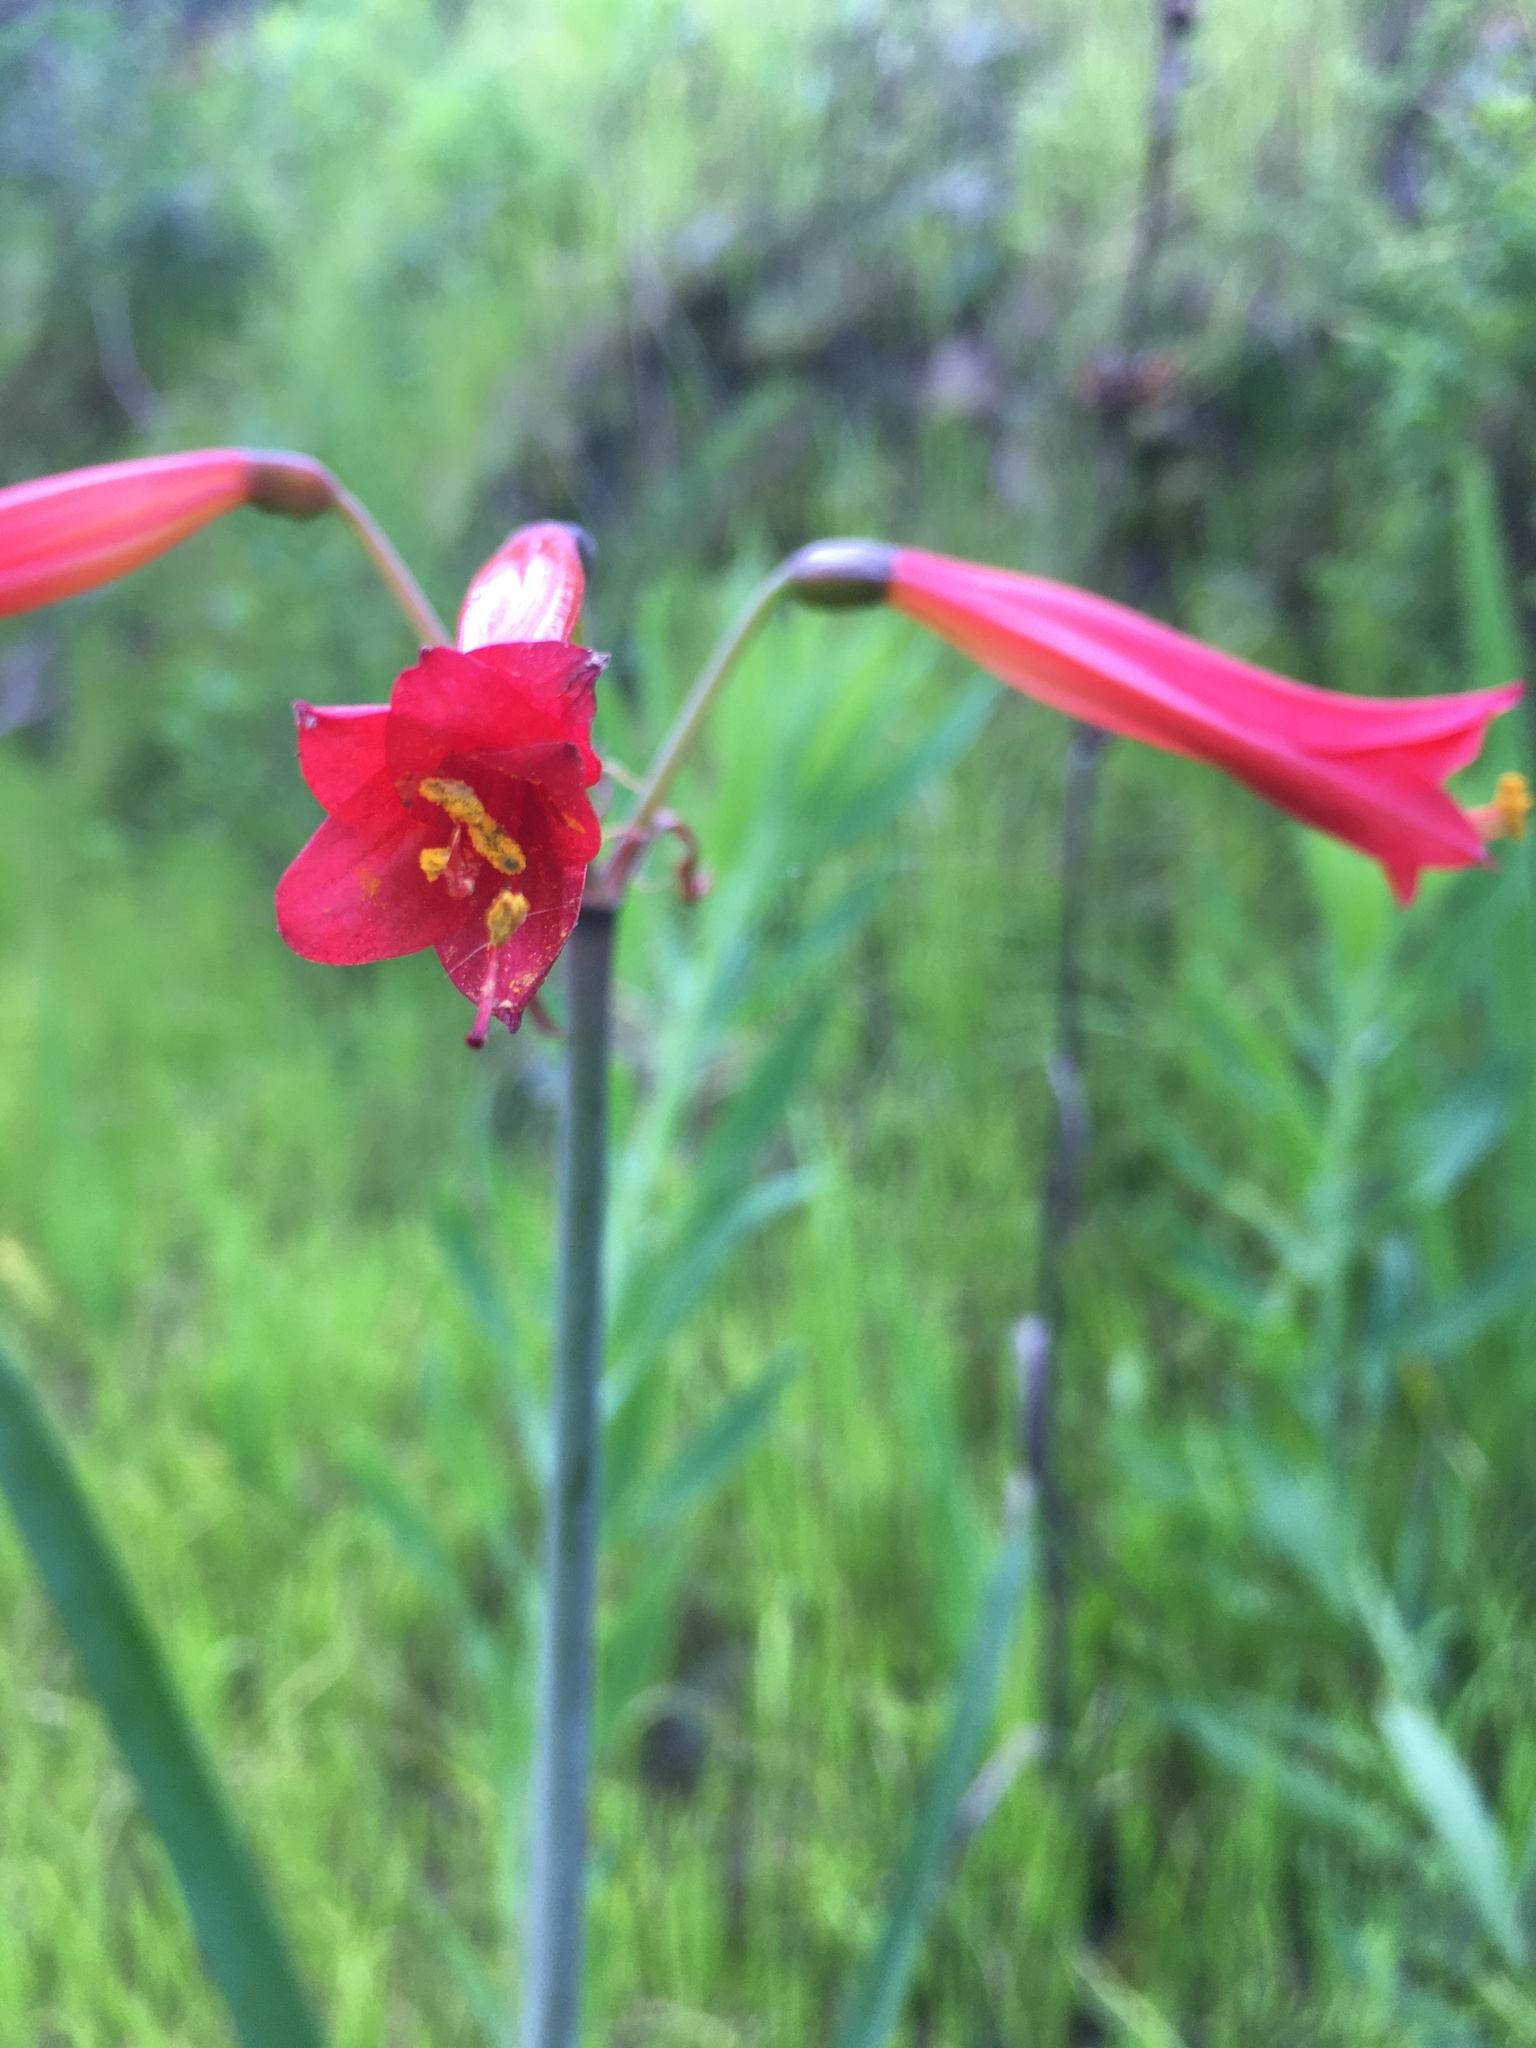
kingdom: Plantae
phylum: Tracheophyta
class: Liliopsida
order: Asparagales
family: Amaryllidaceae
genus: Phycella
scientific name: Phycella cyrtanthoides
